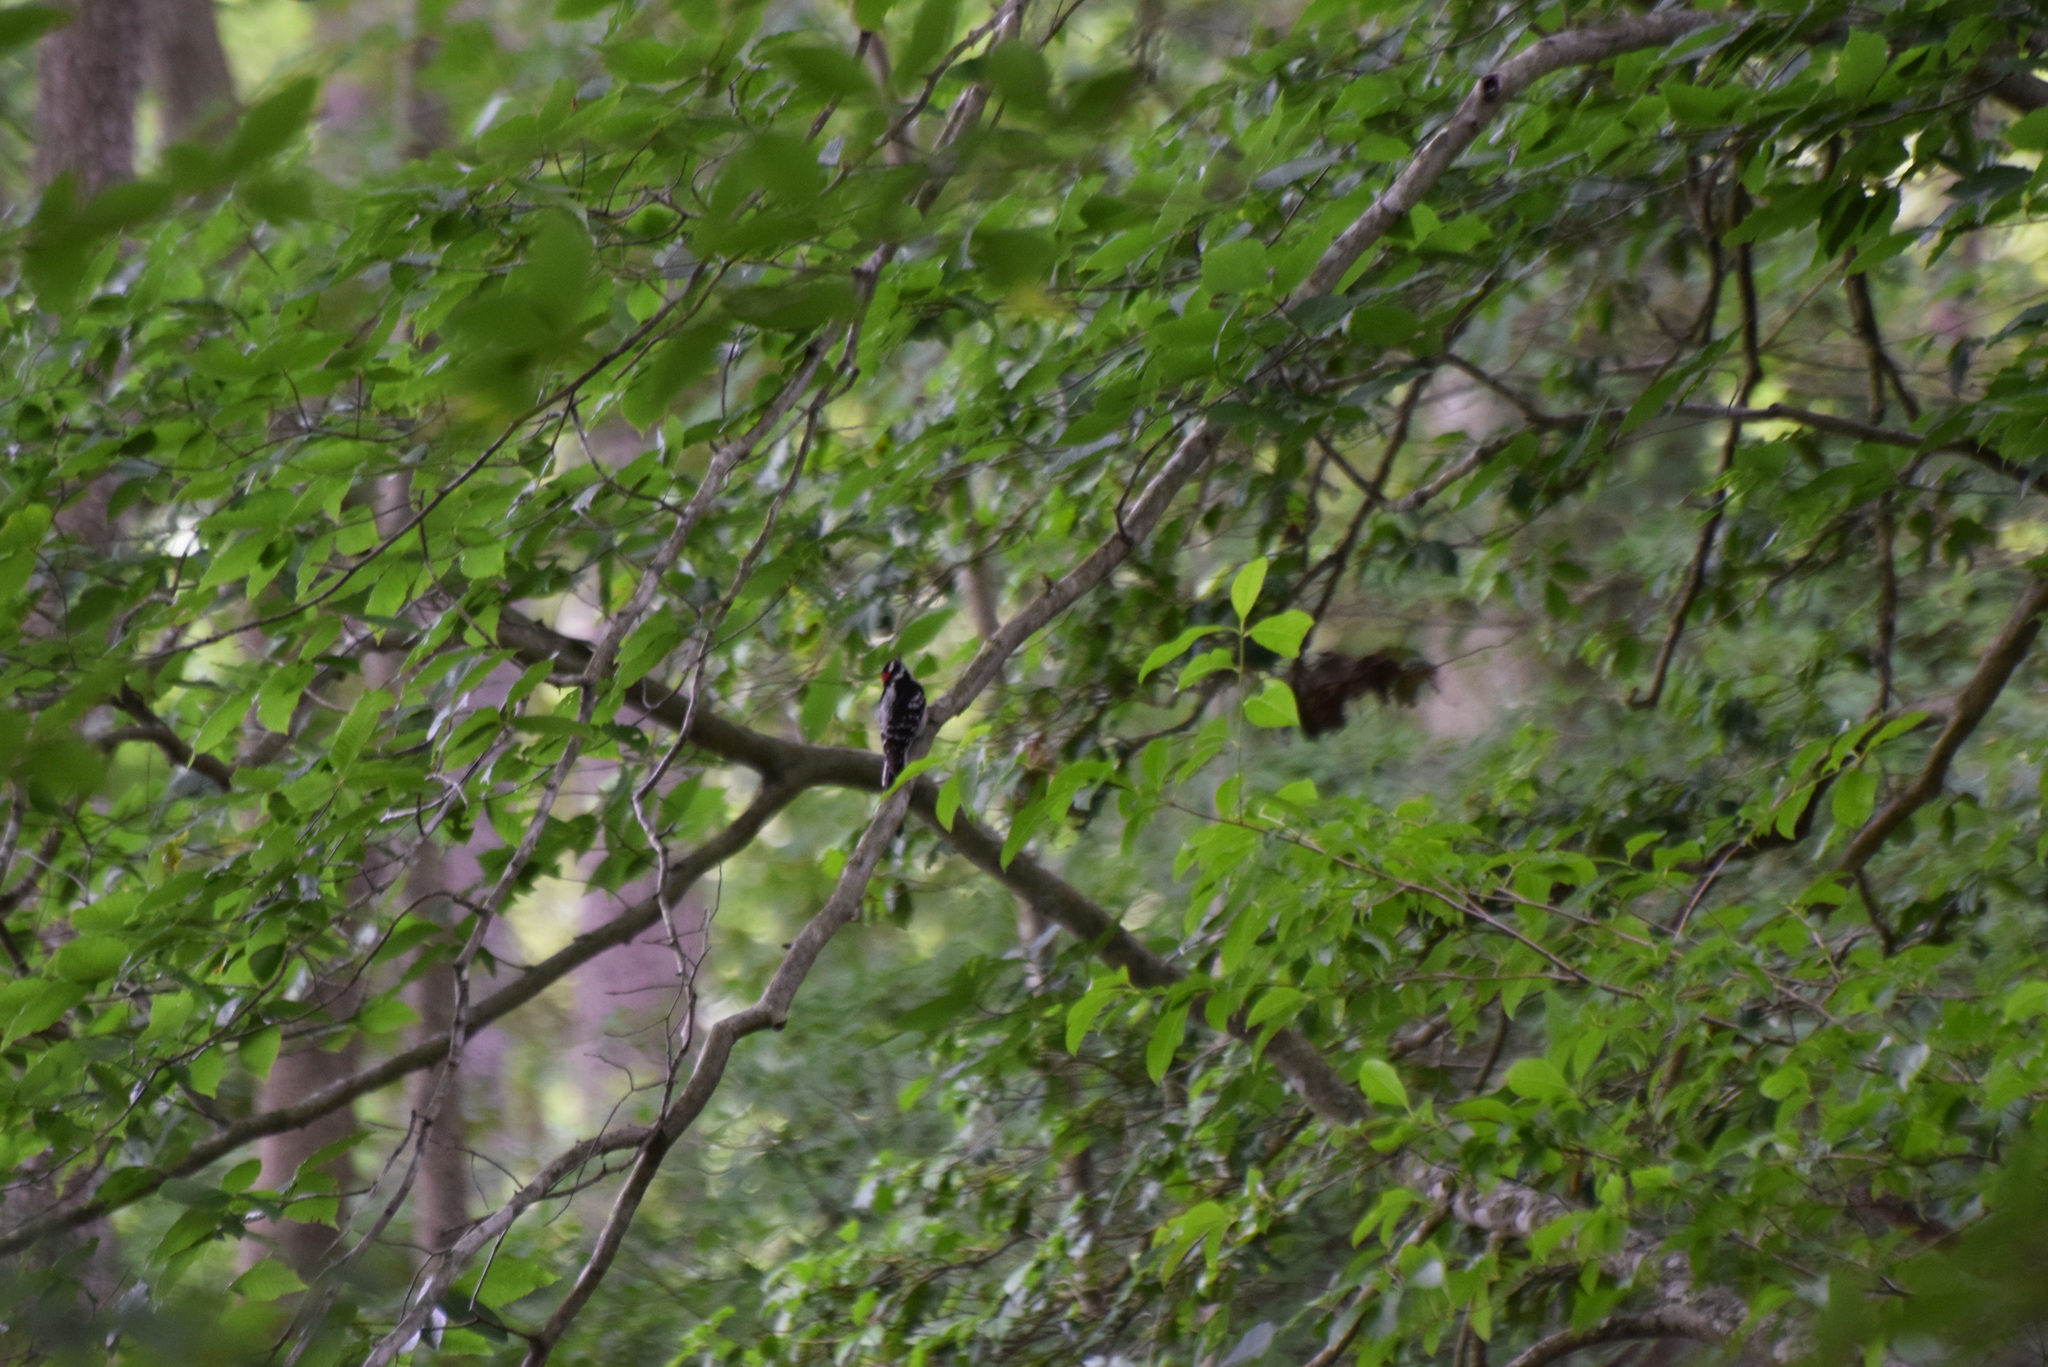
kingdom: Animalia
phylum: Chordata
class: Aves
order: Piciformes
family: Picidae
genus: Leuconotopicus
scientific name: Leuconotopicus villosus
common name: Hairy woodpecker
